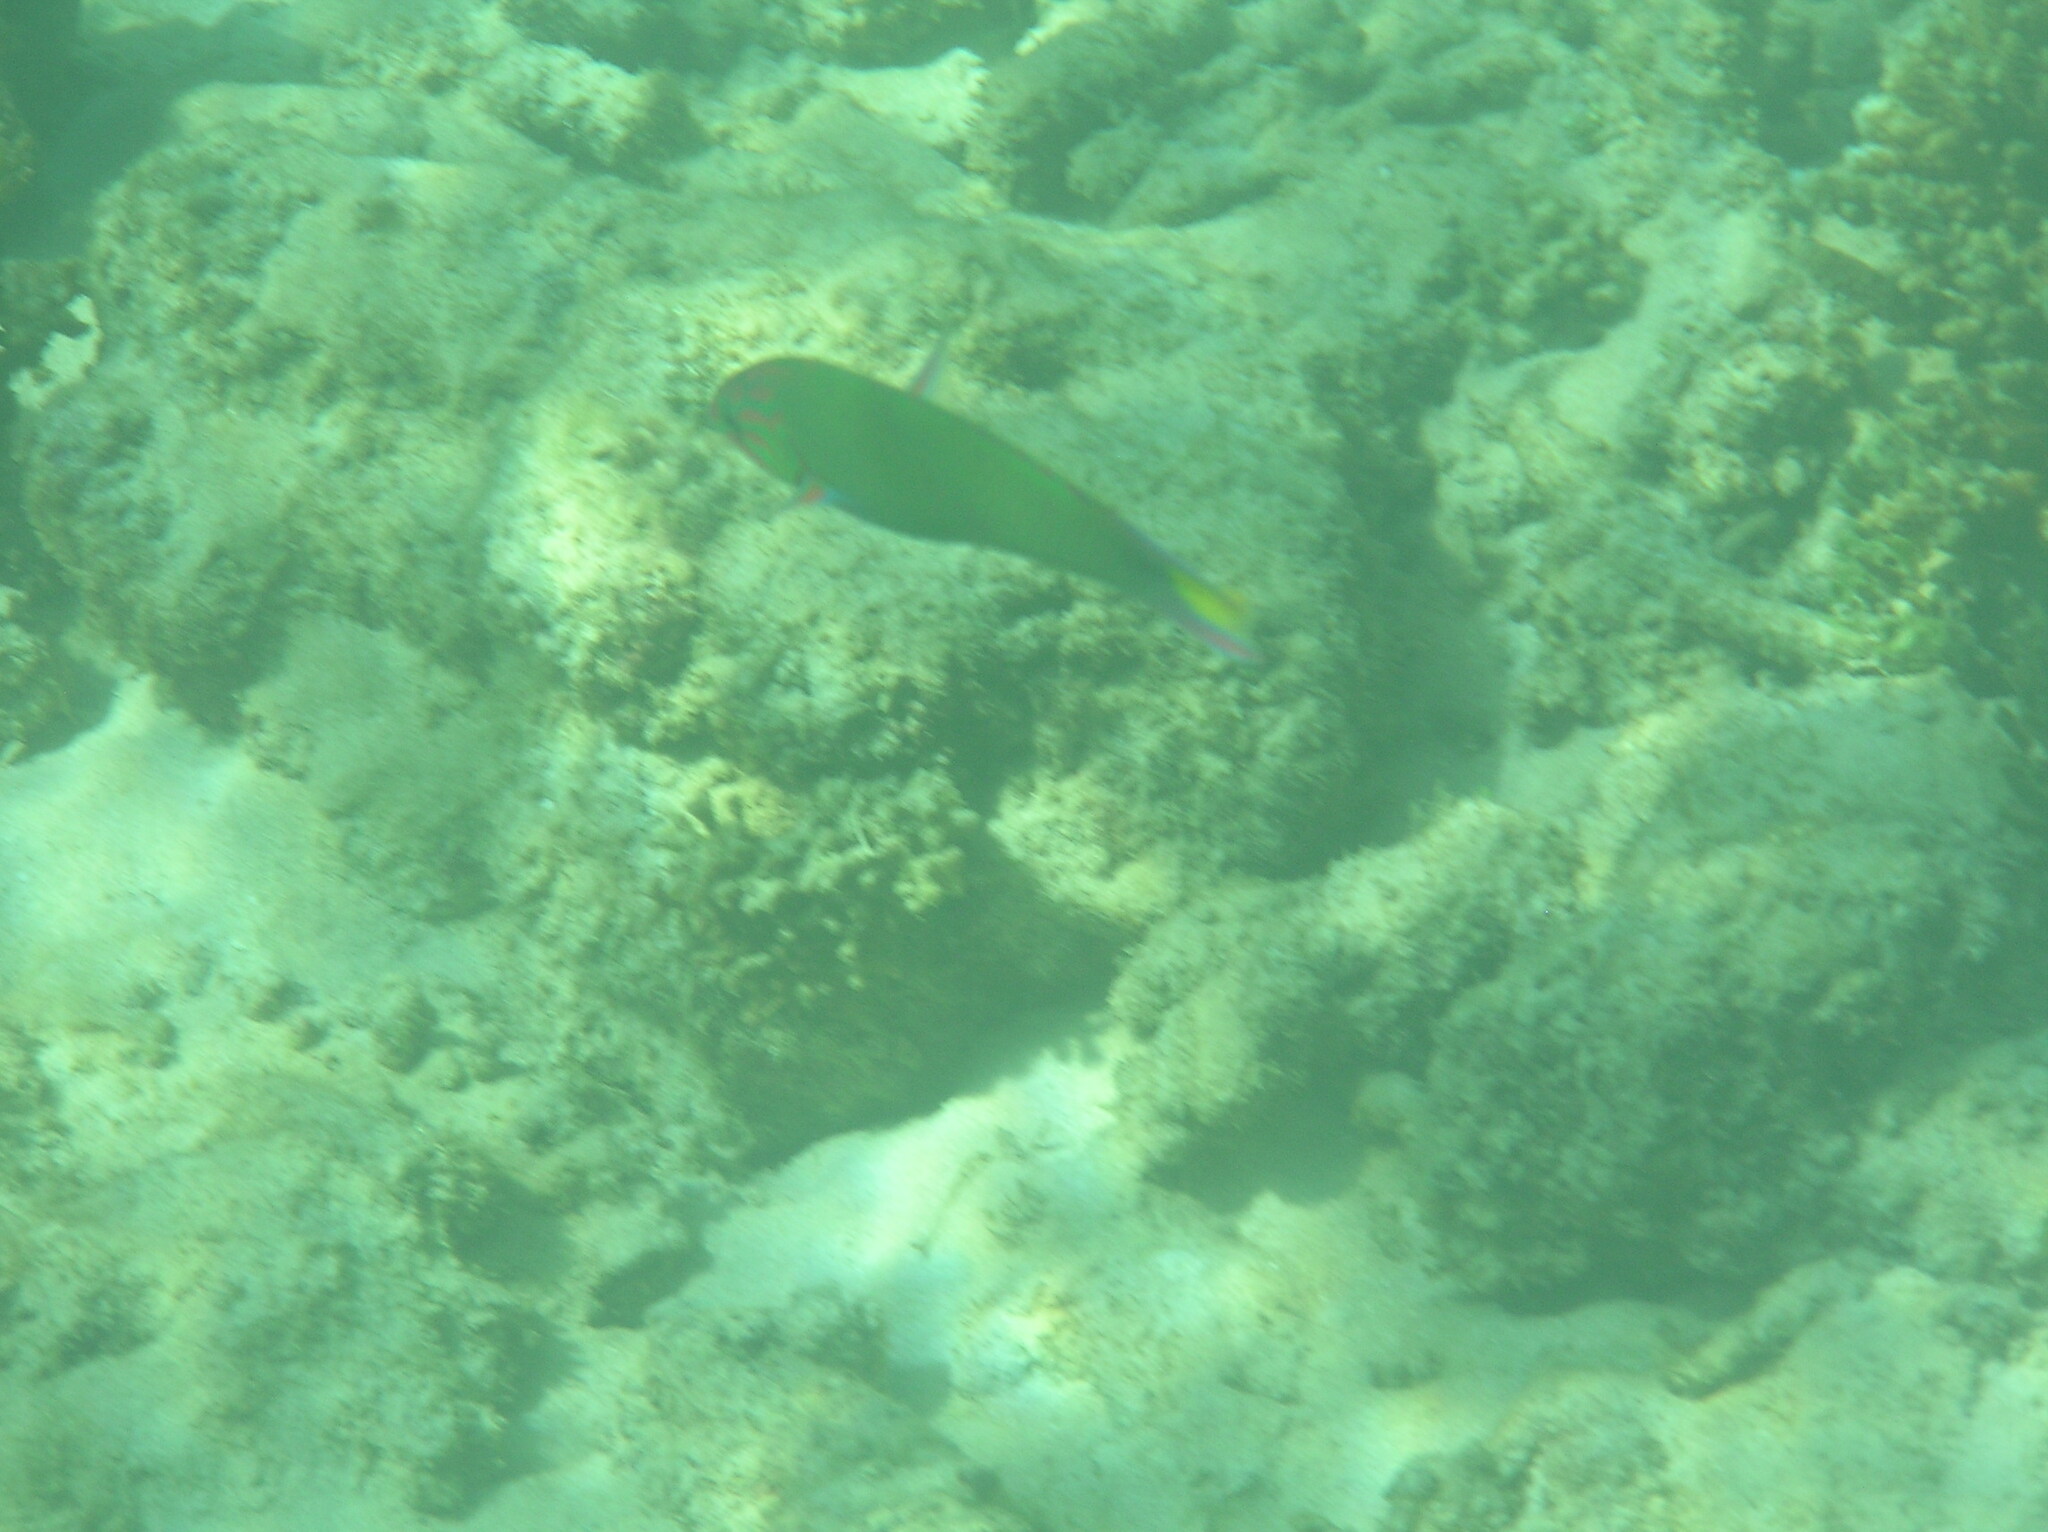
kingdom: Animalia
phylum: Chordata
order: Perciformes
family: Labridae
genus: Thalassoma
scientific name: Thalassoma lunare
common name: Blue wrasse
